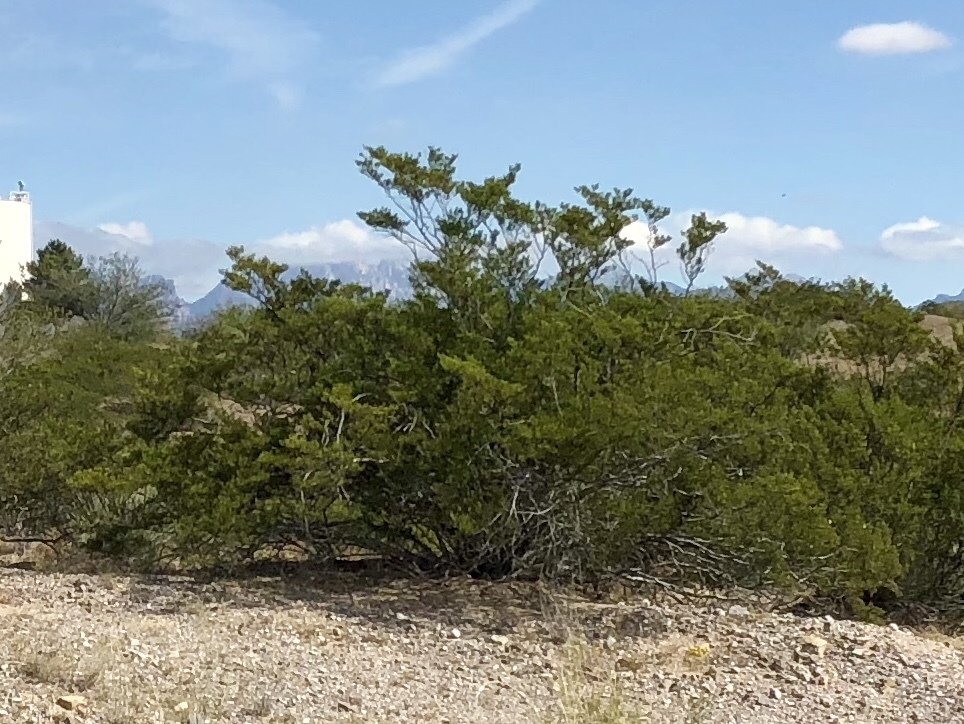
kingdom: Plantae
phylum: Tracheophyta
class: Magnoliopsida
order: Zygophyllales
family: Zygophyllaceae
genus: Larrea
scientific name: Larrea tridentata
